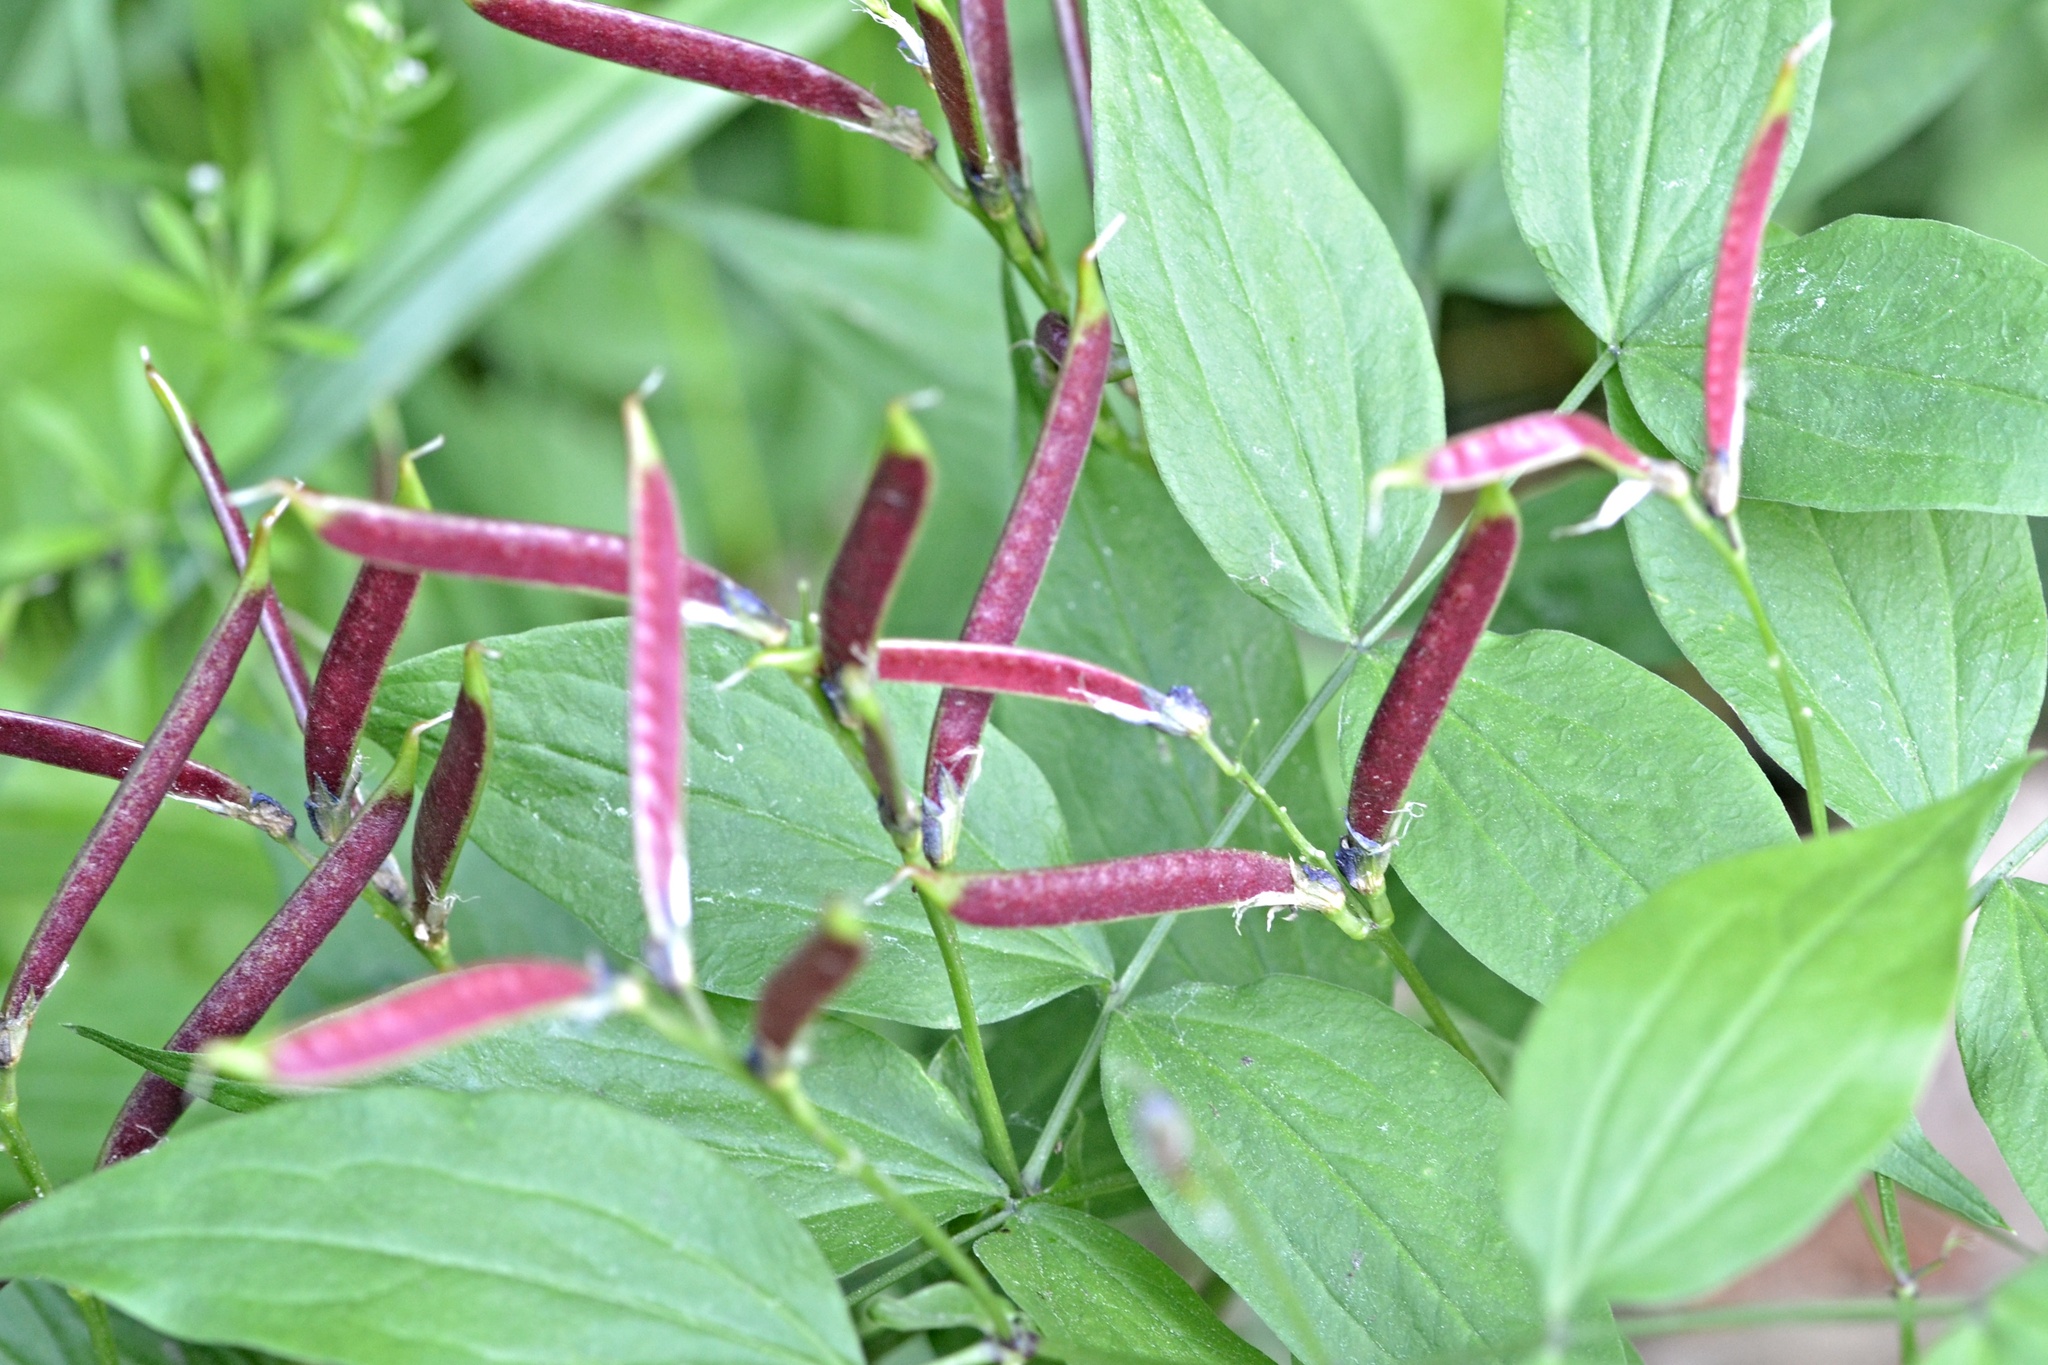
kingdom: Plantae
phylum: Tracheophyta
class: Magnoliopsida
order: Fabales
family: Fabaceae
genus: Lathyrus
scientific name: Lathyrus vernus
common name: Spring pea
